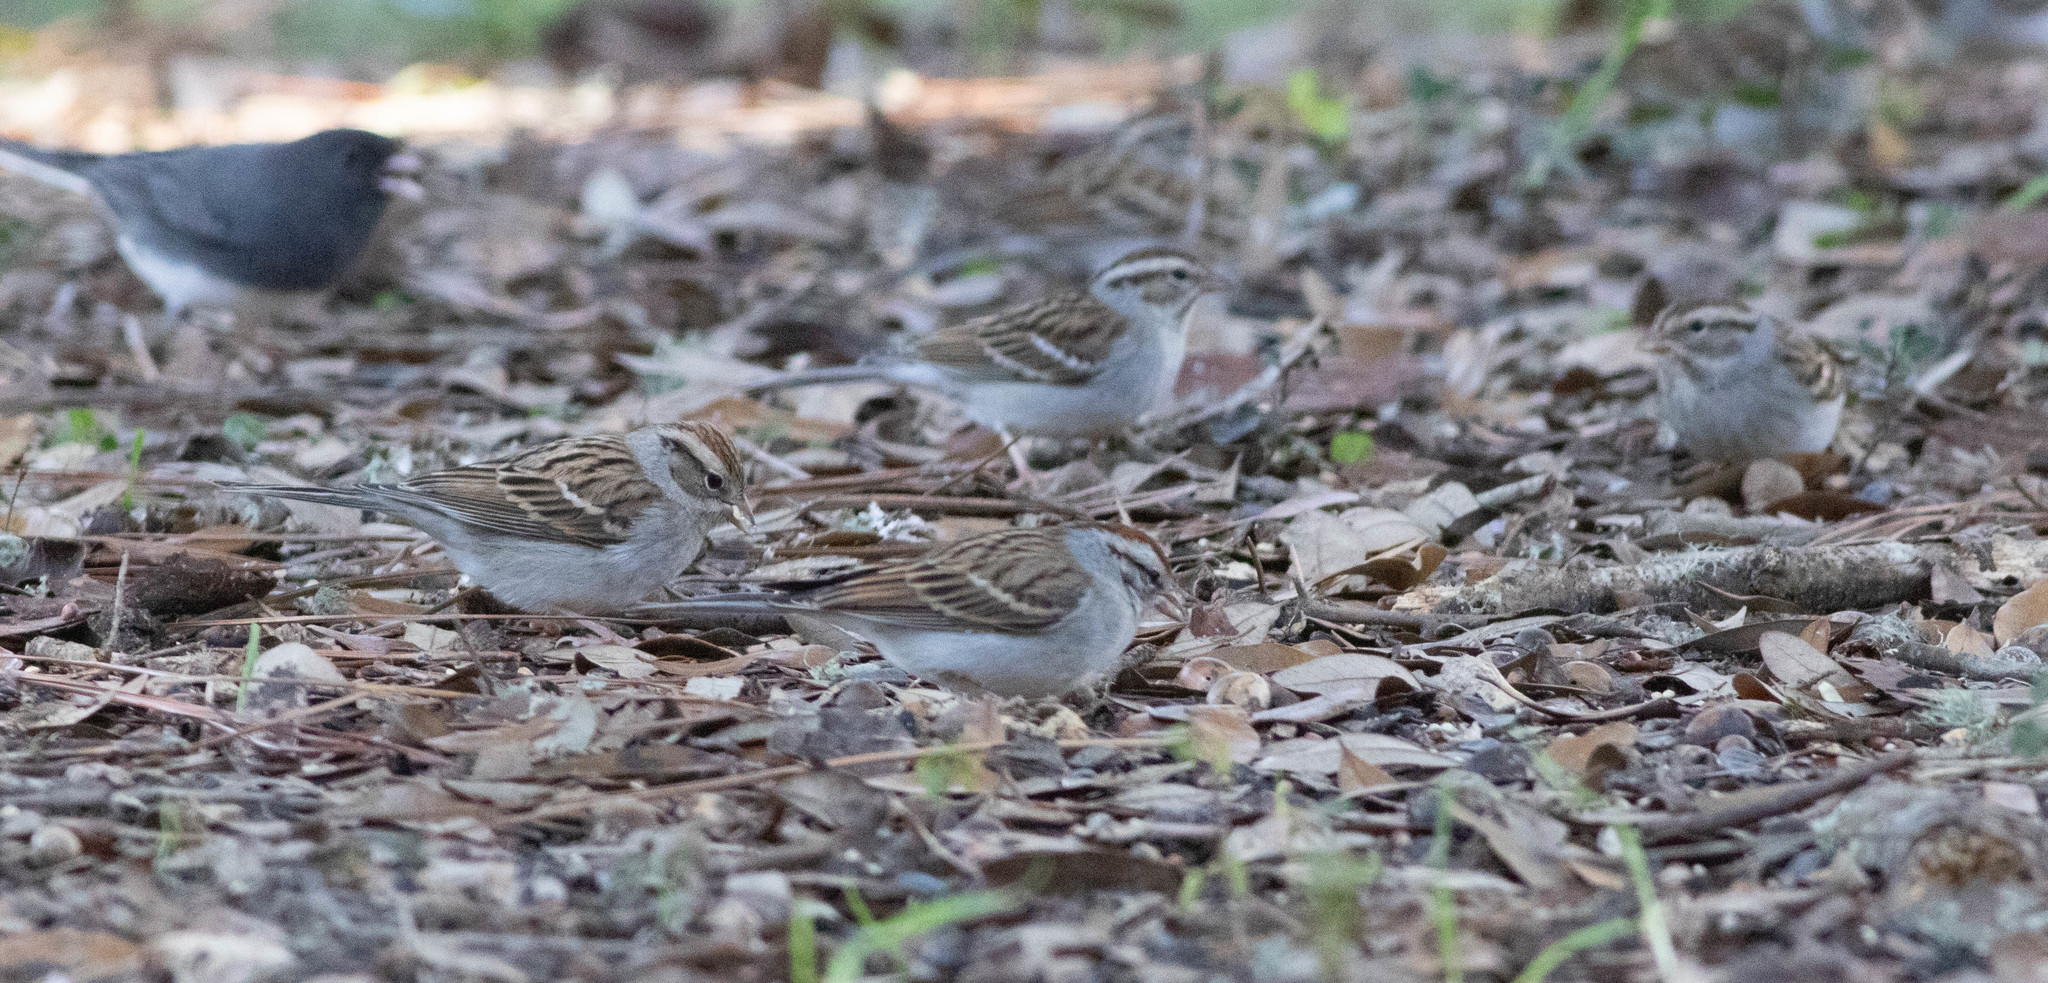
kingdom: Animalia
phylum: Chordata
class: Aves
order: Passeriformes
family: Passerellidae
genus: Spizella
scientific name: Spizella passerina
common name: Chipping sparrow
